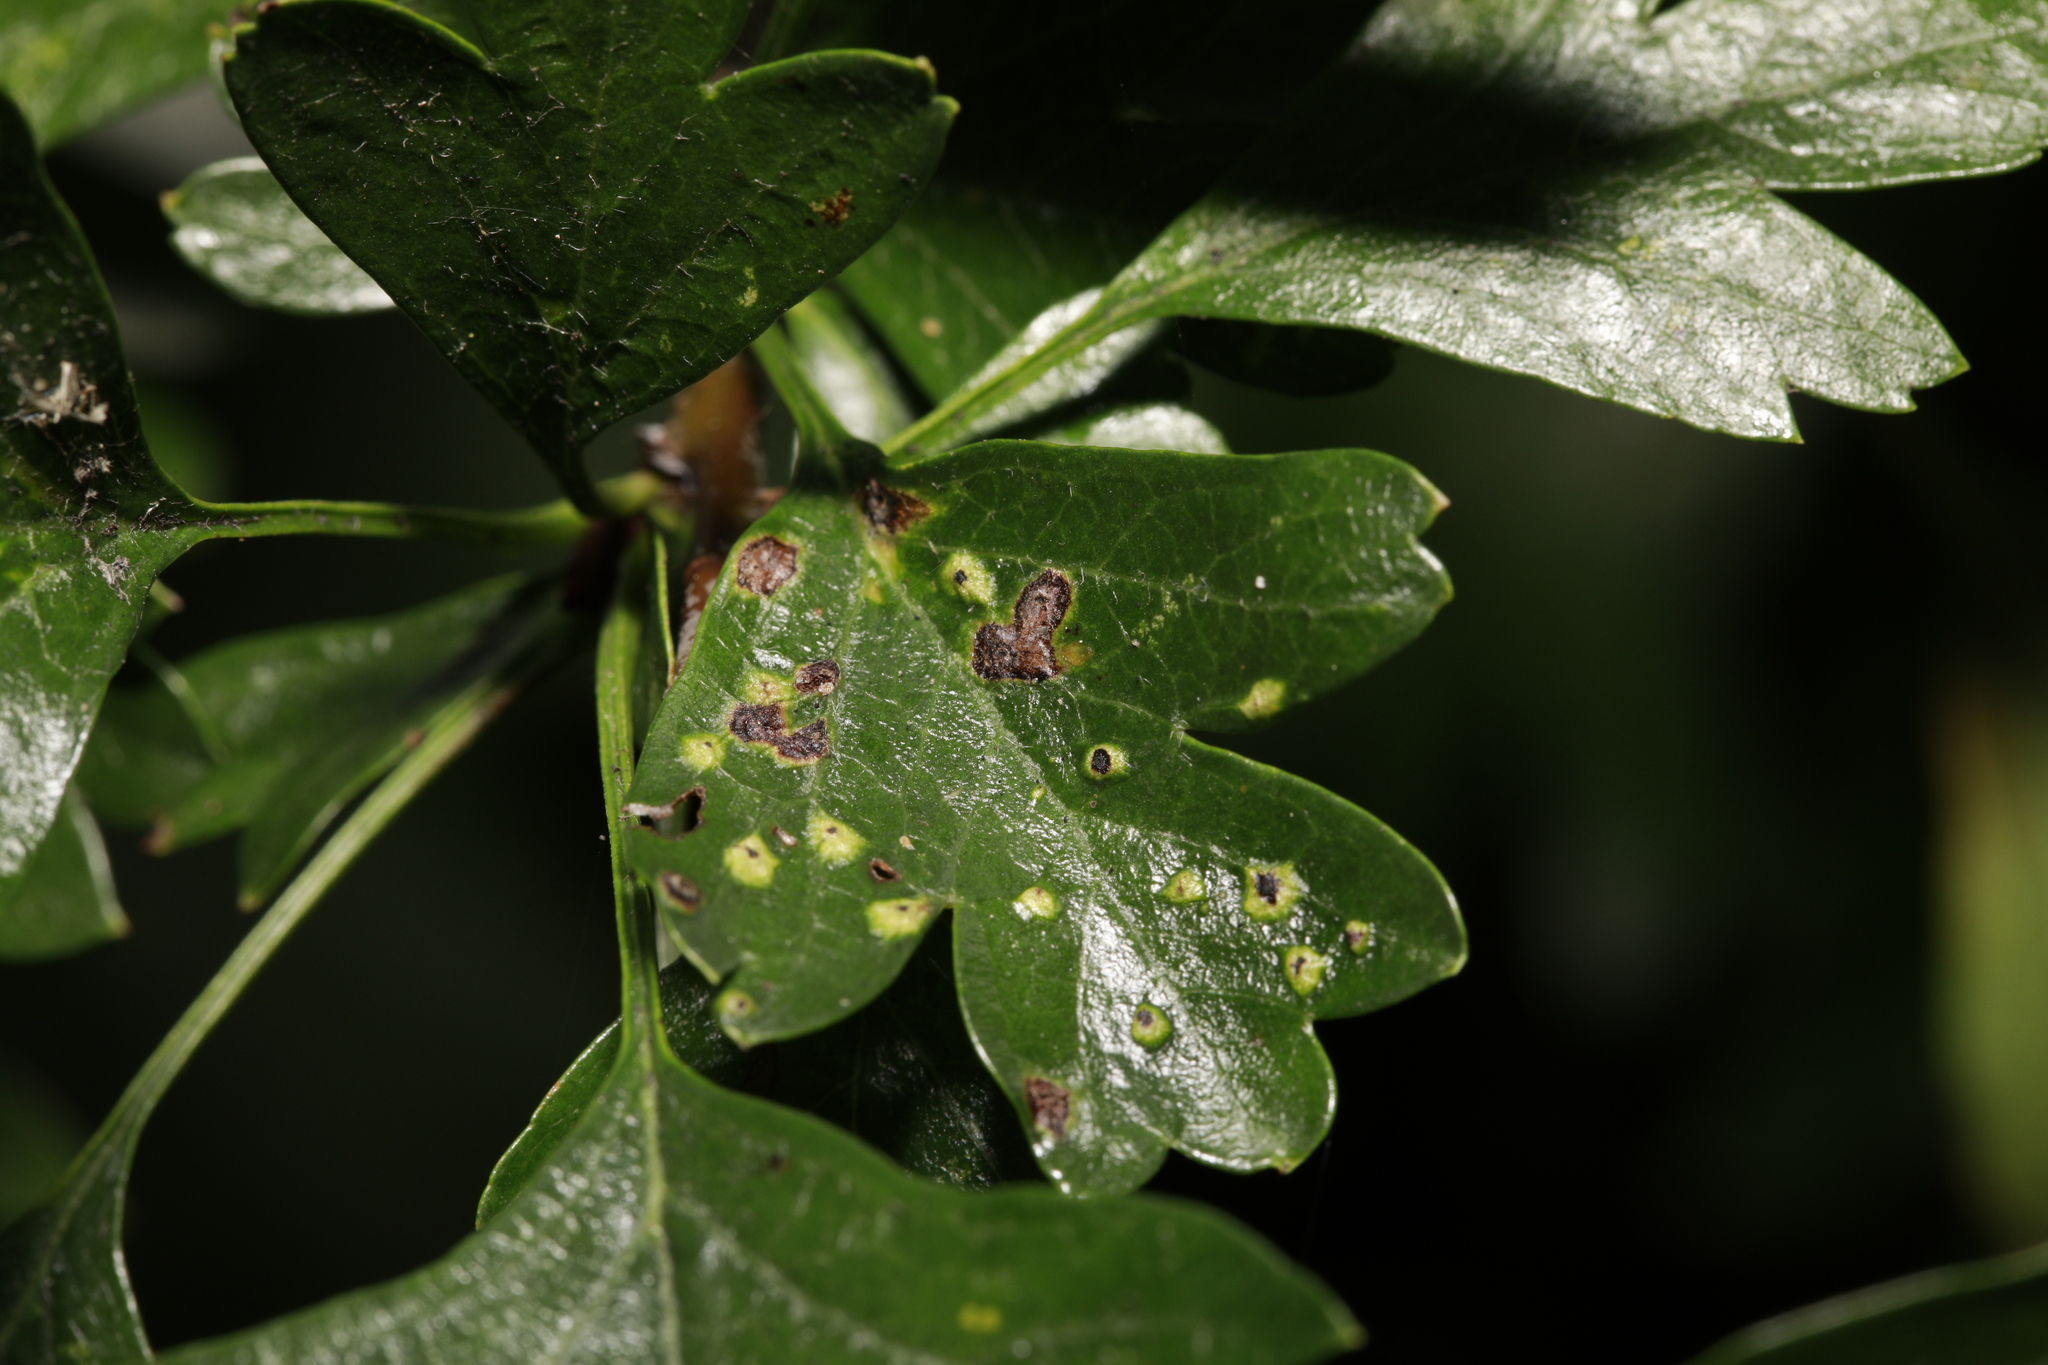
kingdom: Animalia
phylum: Arthropoda
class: Arachnida
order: Trombidiformes
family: Eriophyidae
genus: Phyllocoptes
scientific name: Phyllocoptes goniothorax
